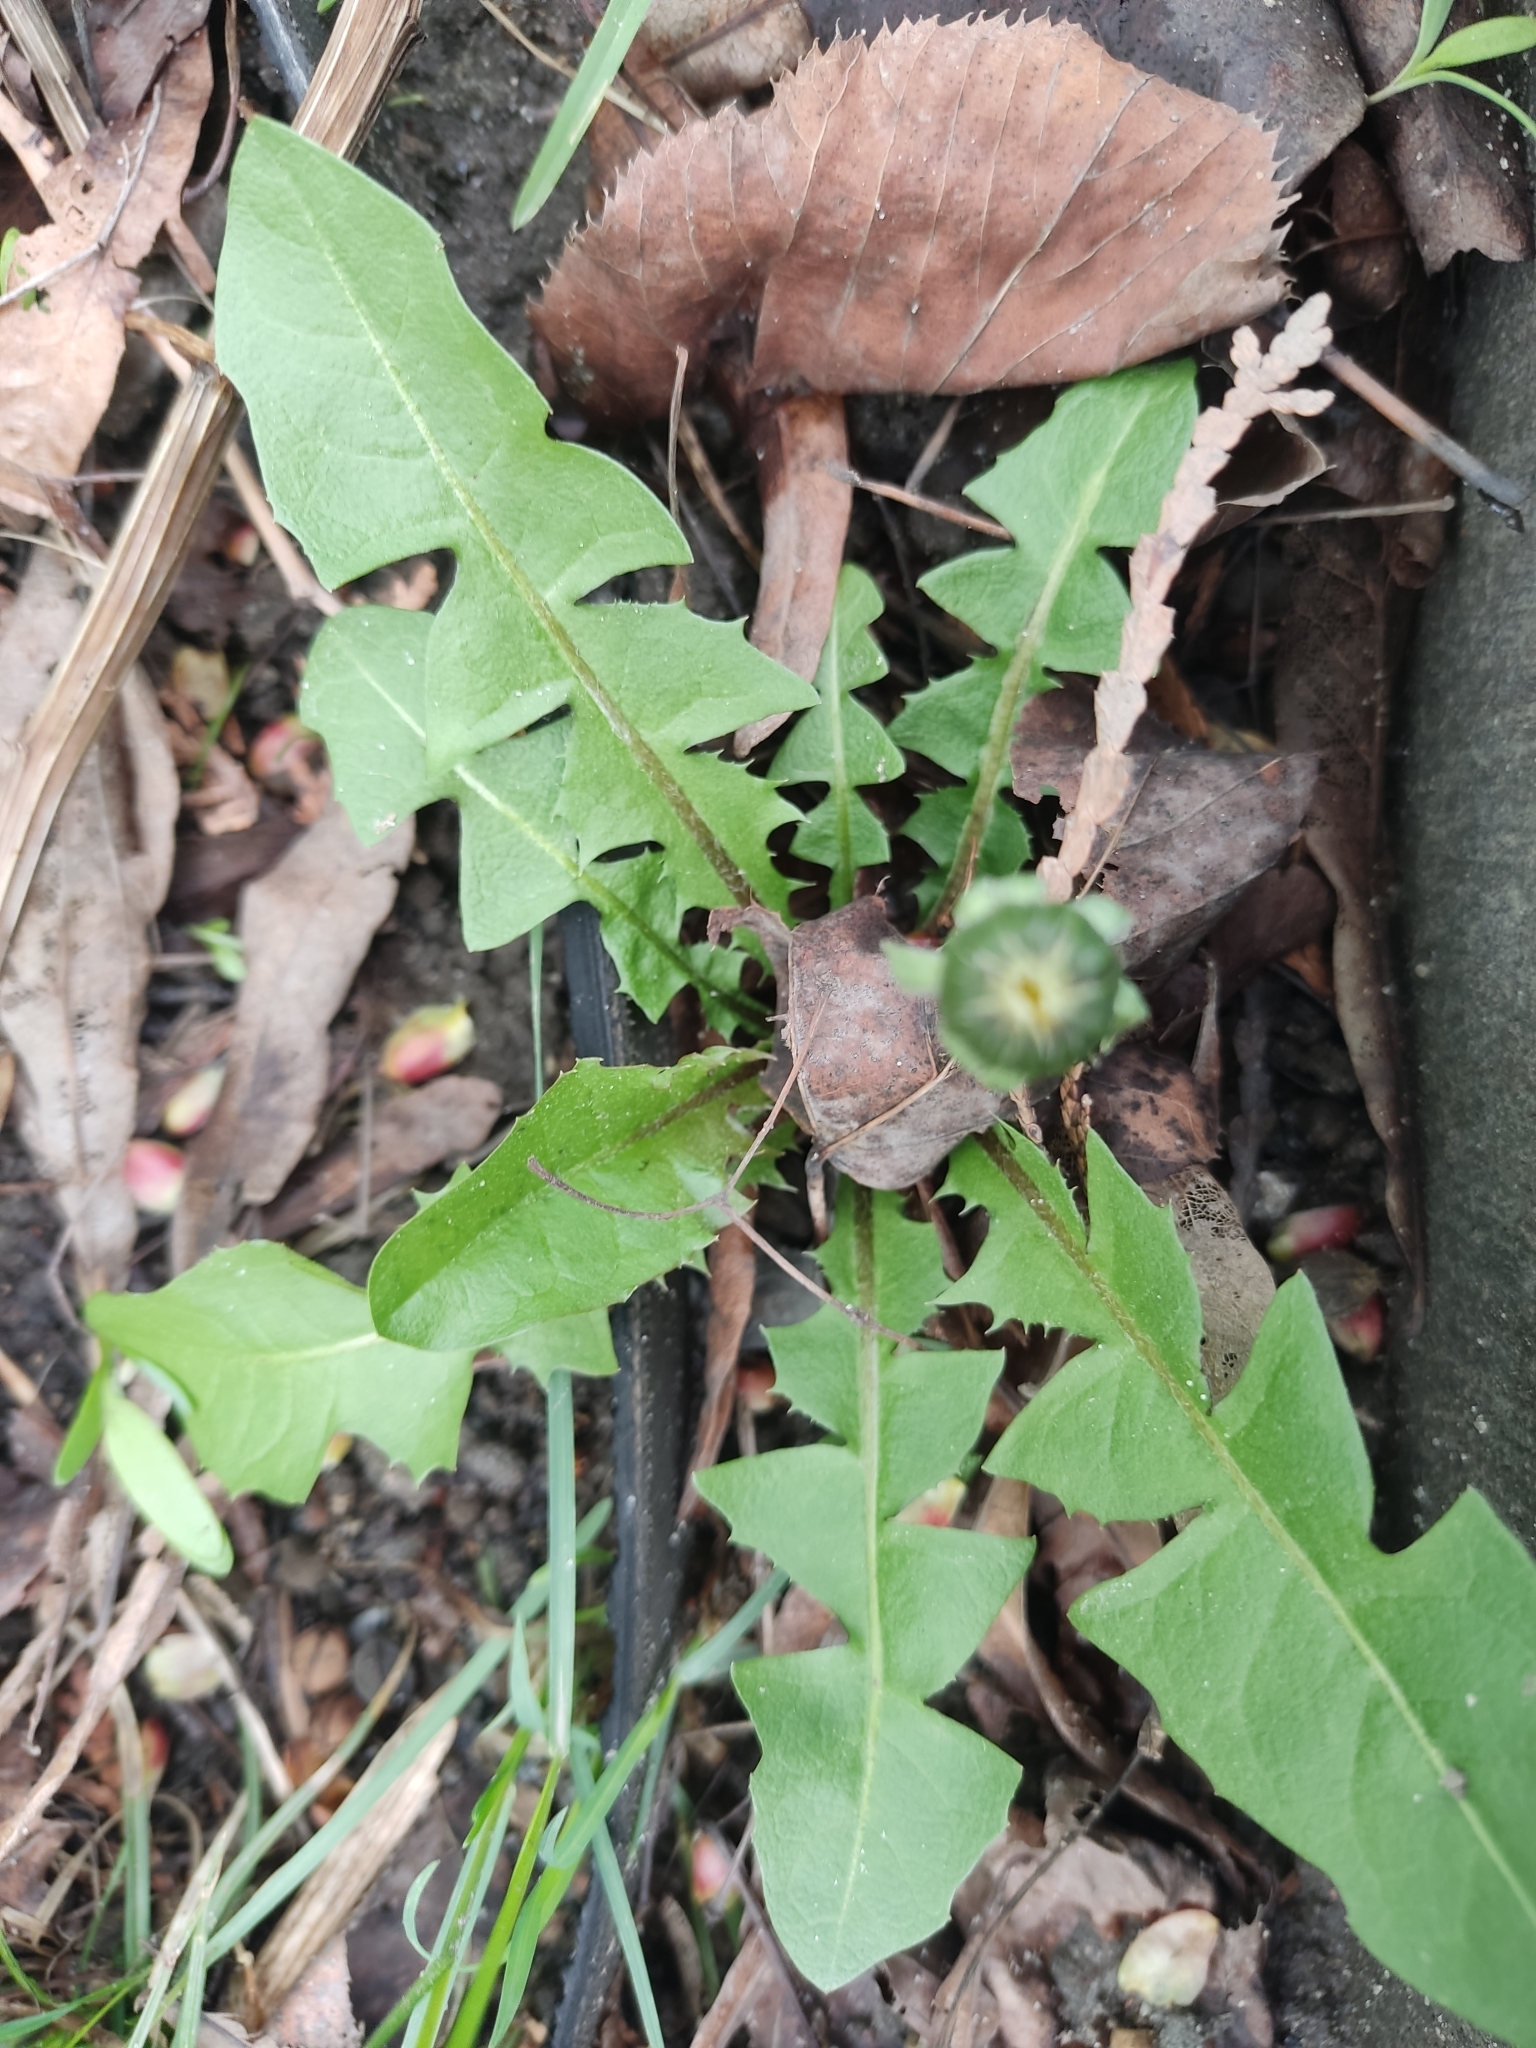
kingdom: Plantae
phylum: Tracheophyta
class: Magnoliopsida
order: Asterales
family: Asteraceae
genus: Taraxacum
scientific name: Taraxacum officinale
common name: Common dandelion
